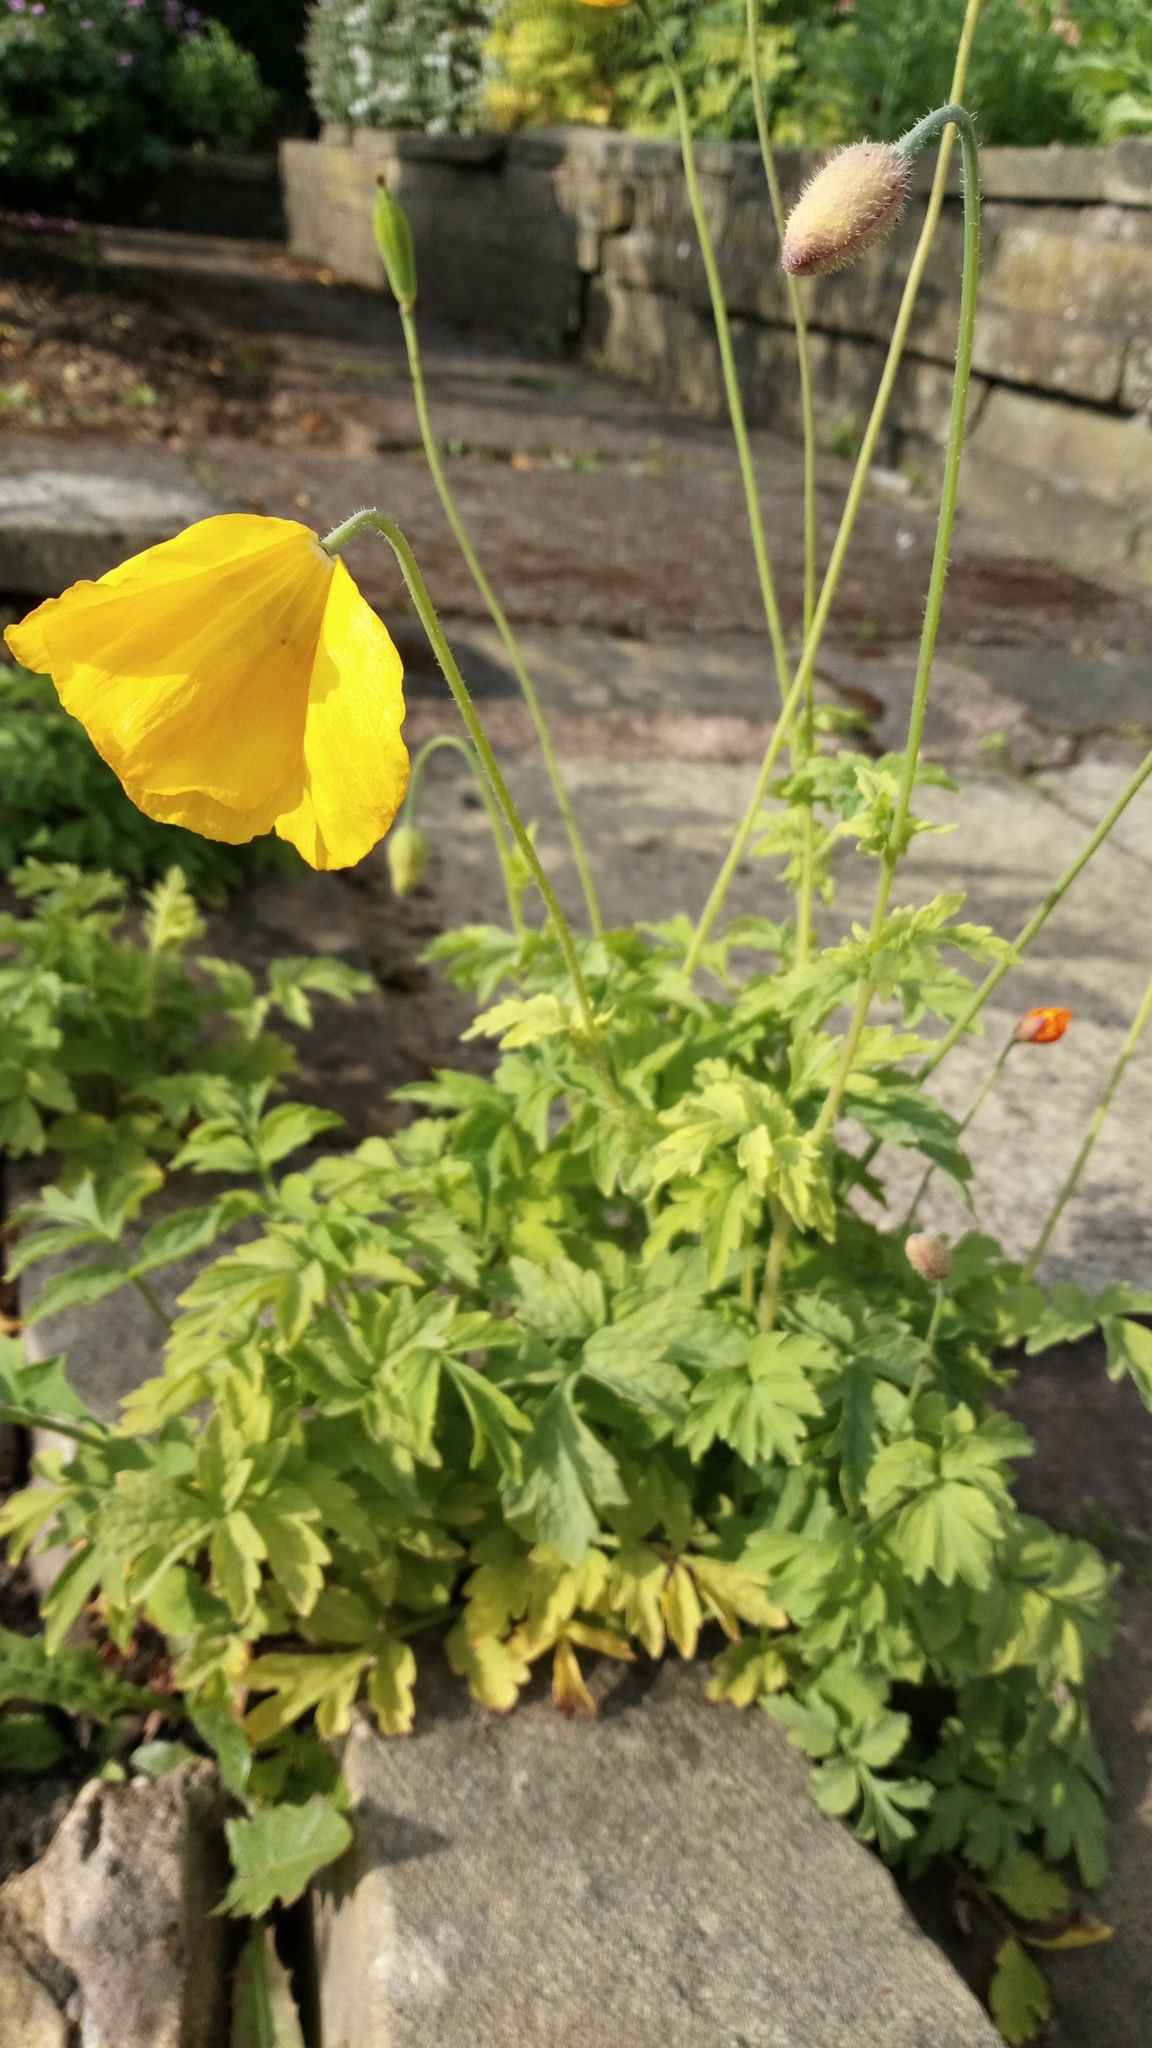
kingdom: Plantae
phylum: Tracheophyta
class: Magnoliopsida
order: Ranunculales
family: Papaveraceae
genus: Papaver
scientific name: Papaver cambricum
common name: Poppy
